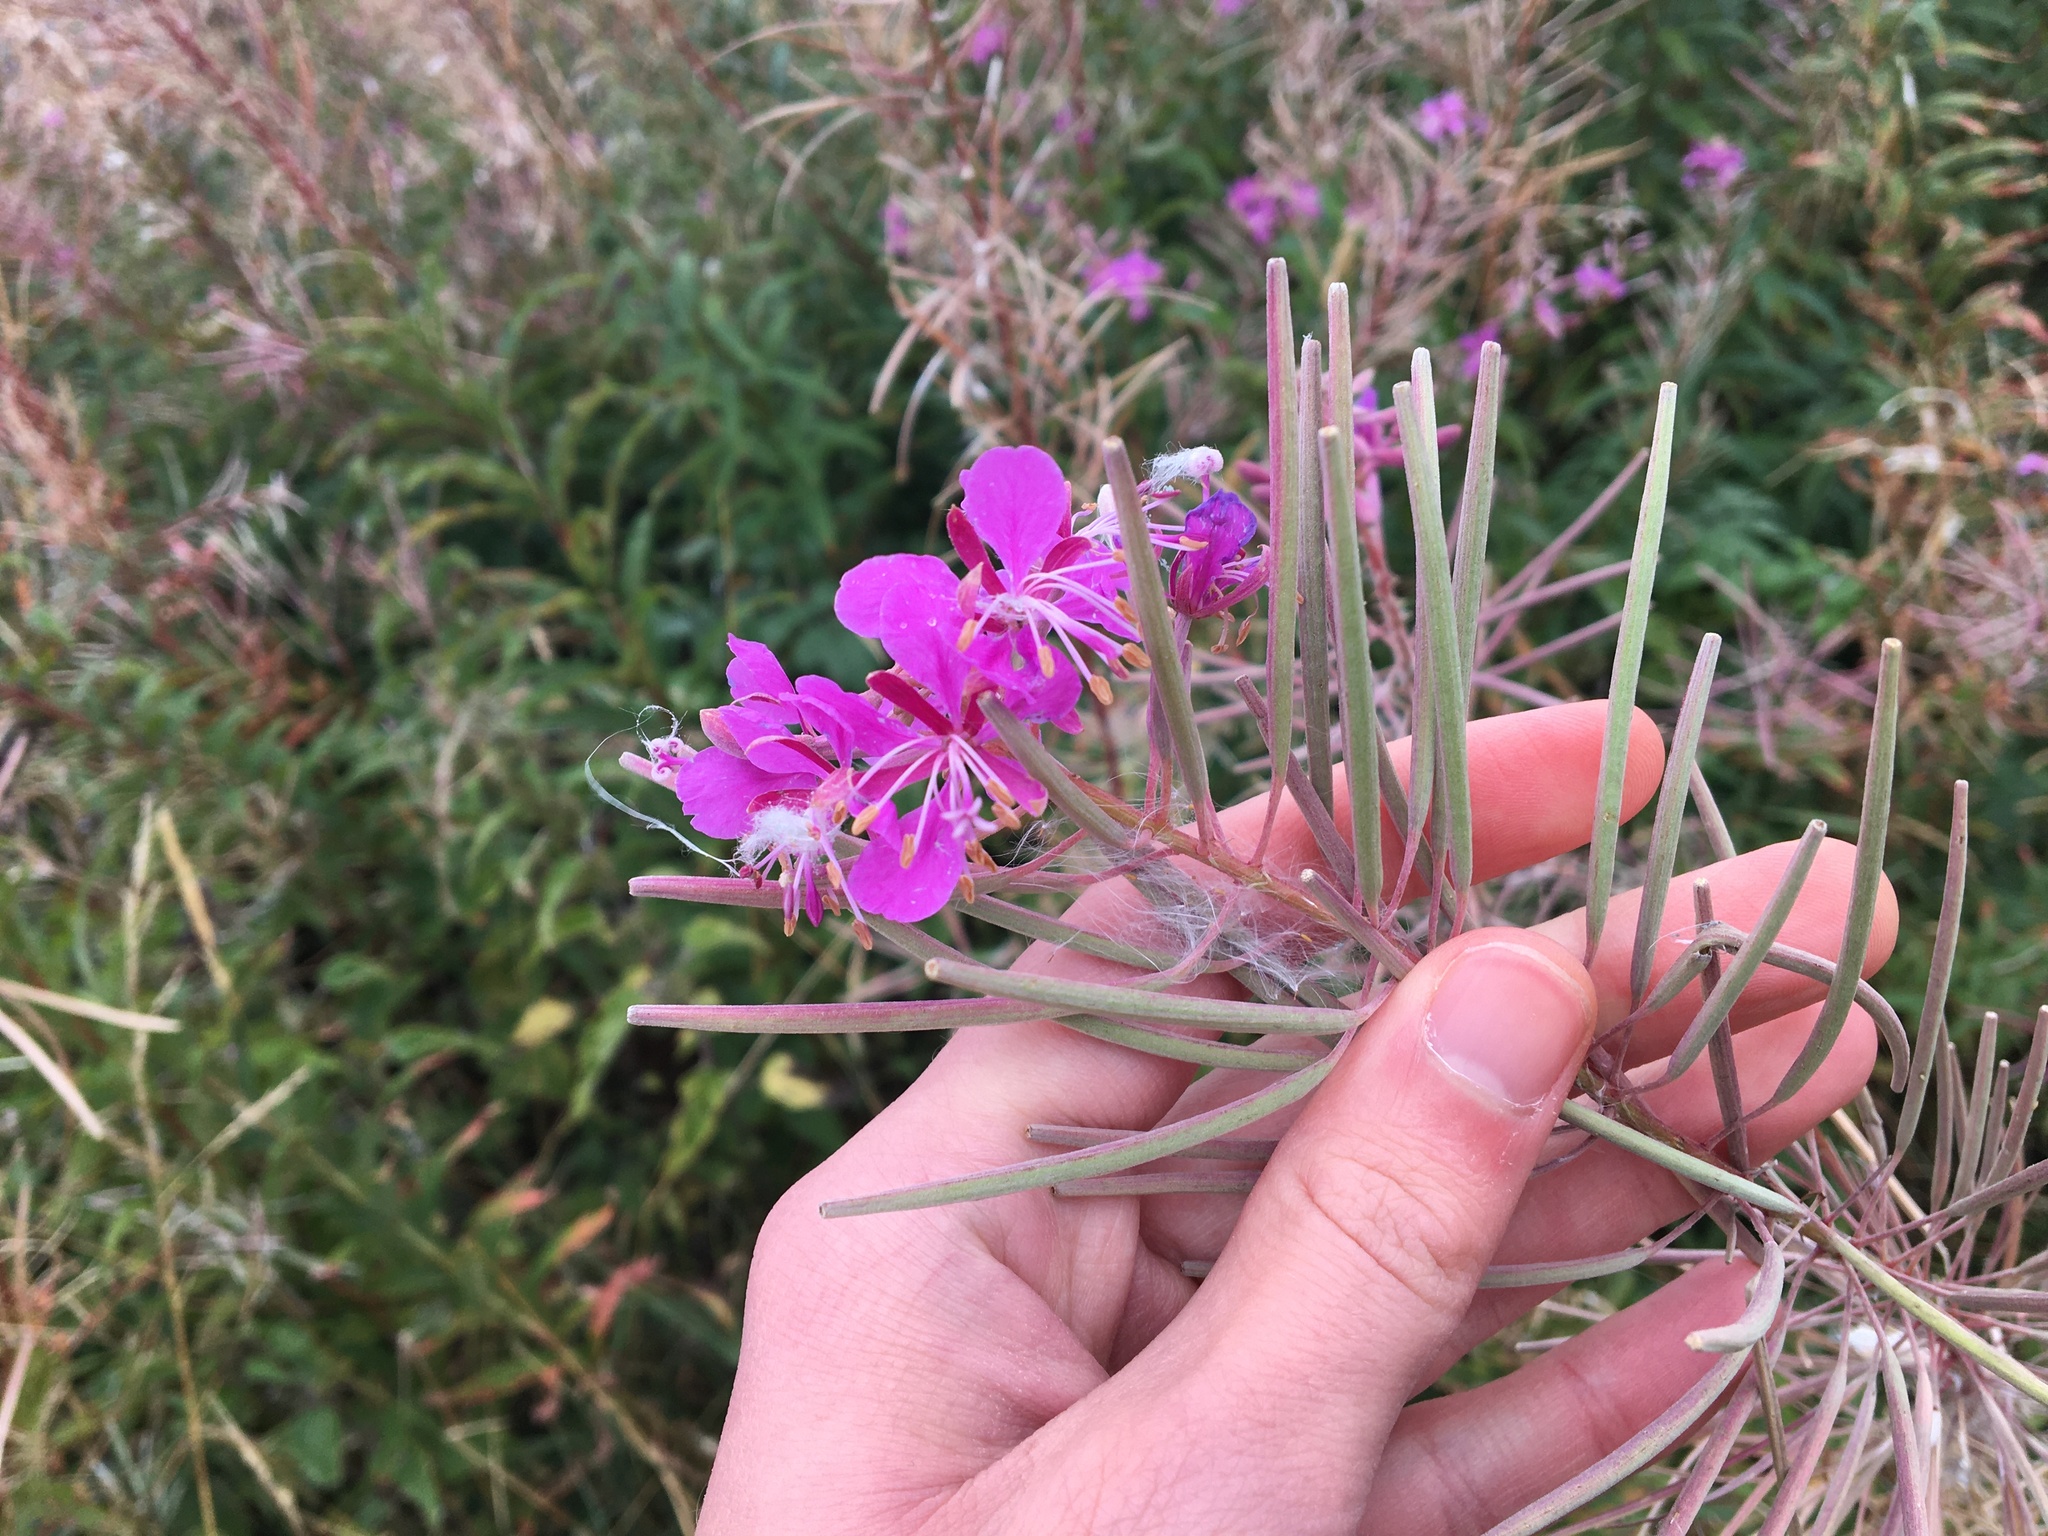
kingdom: Plantae
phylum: Tracheophyta
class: Magnoliopsida
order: Myrtales
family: Onagraceae
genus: Chamaenerion
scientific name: Chamaenerion angustifolium
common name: Fireweed
